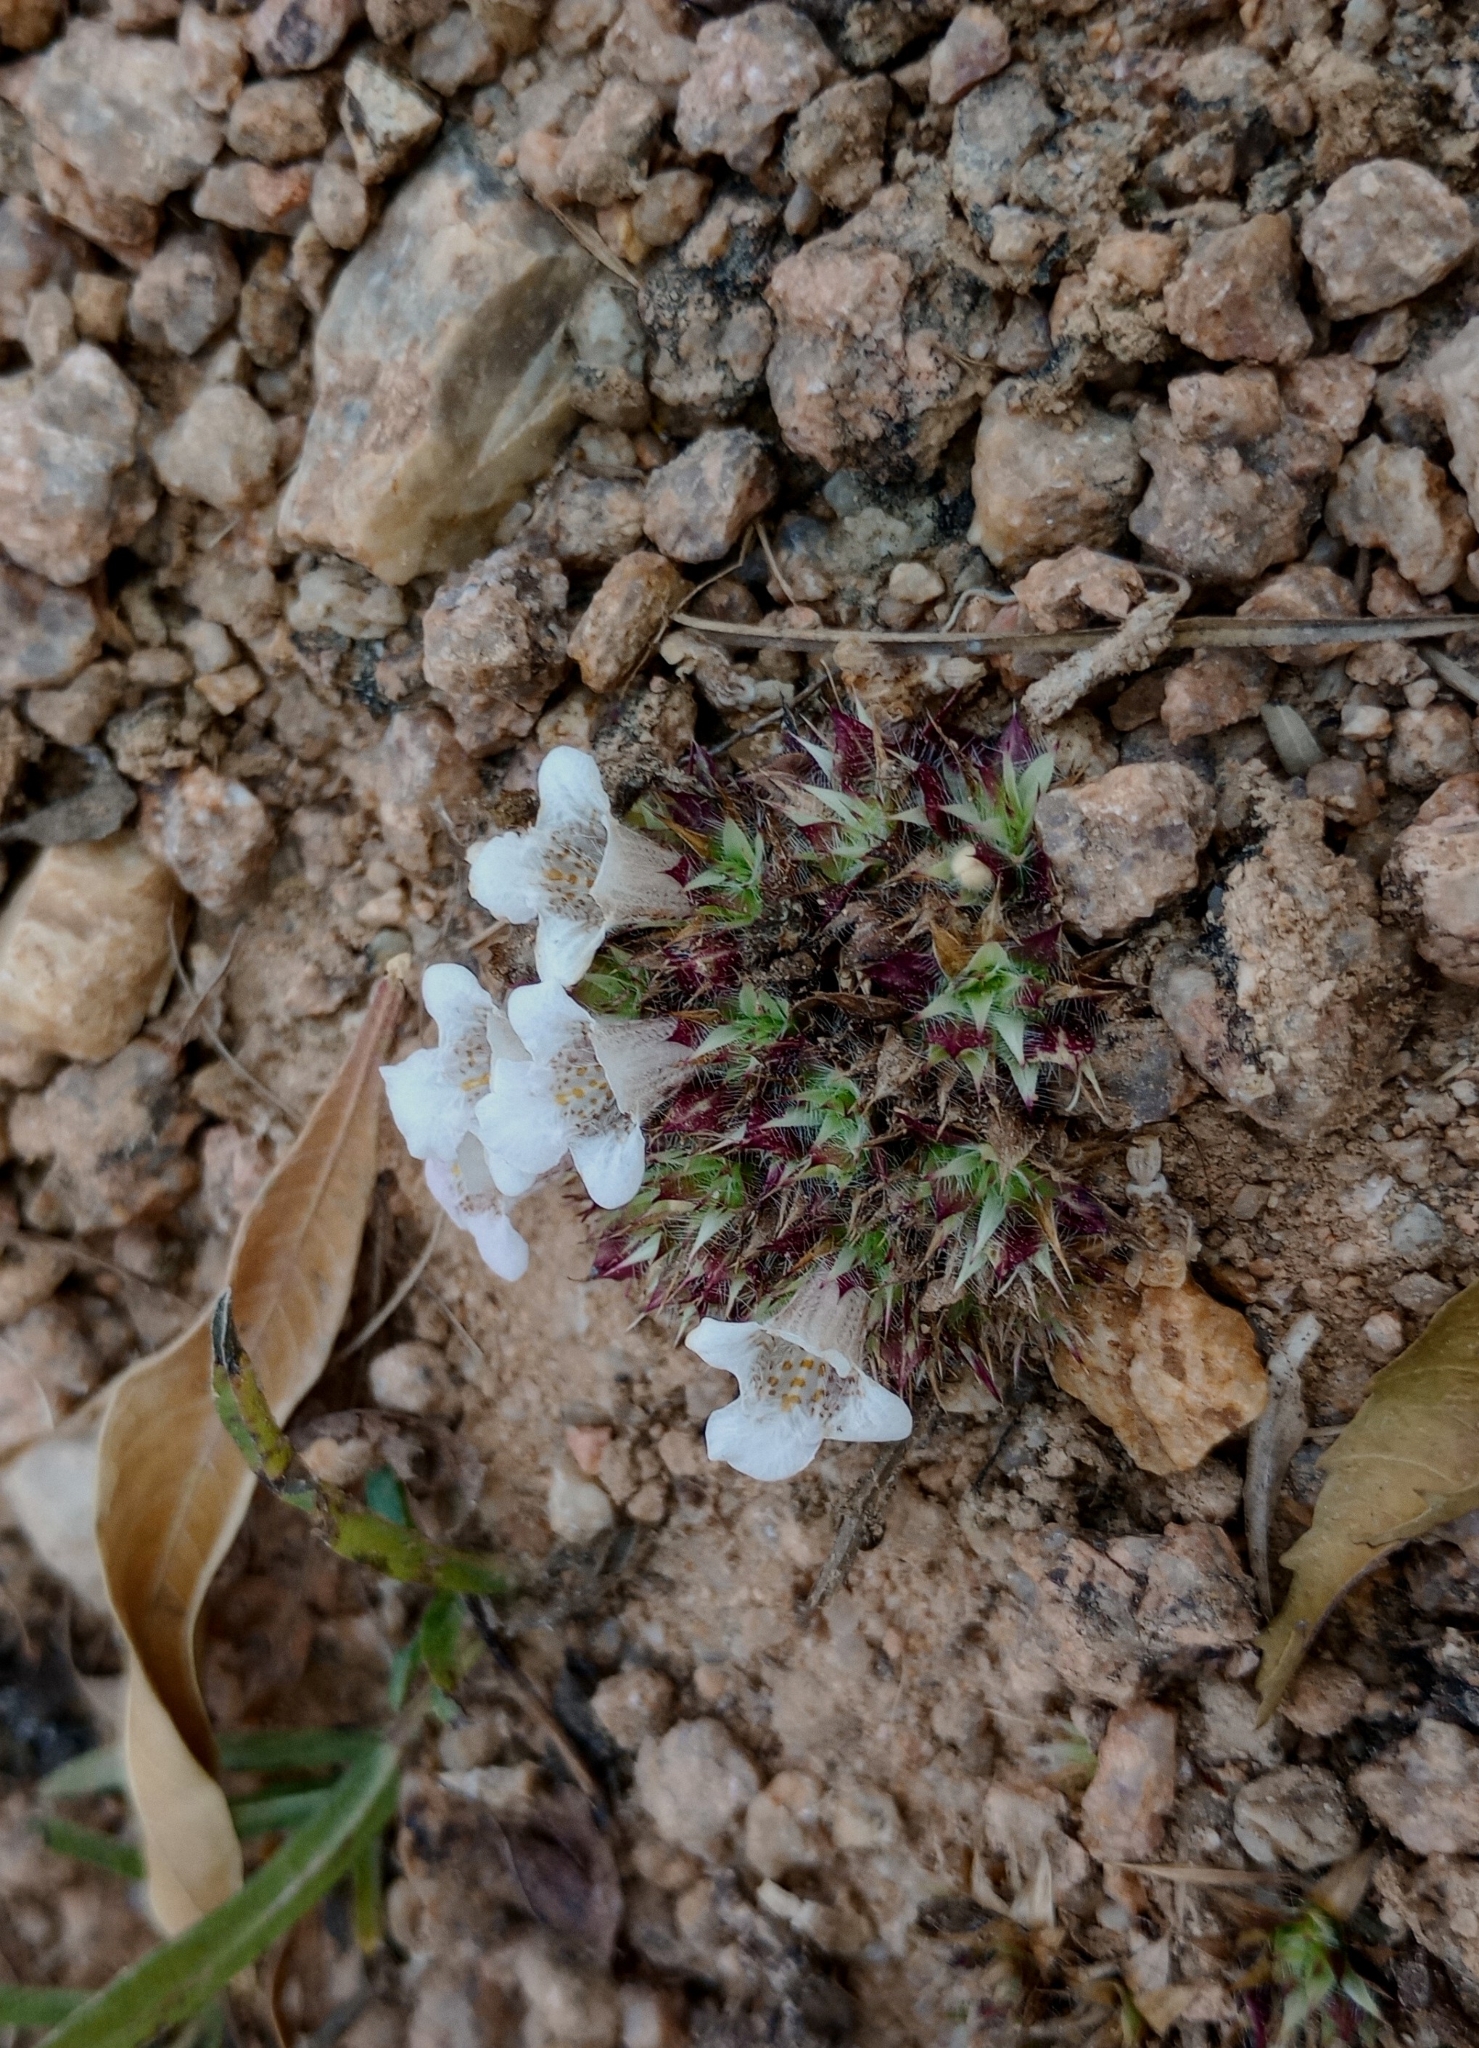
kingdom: Plantae
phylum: Tracheophyta
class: Magnoliopsida
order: Lamiales
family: Acanthaceae
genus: Lepidagathis
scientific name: Lepidagathis cristata
